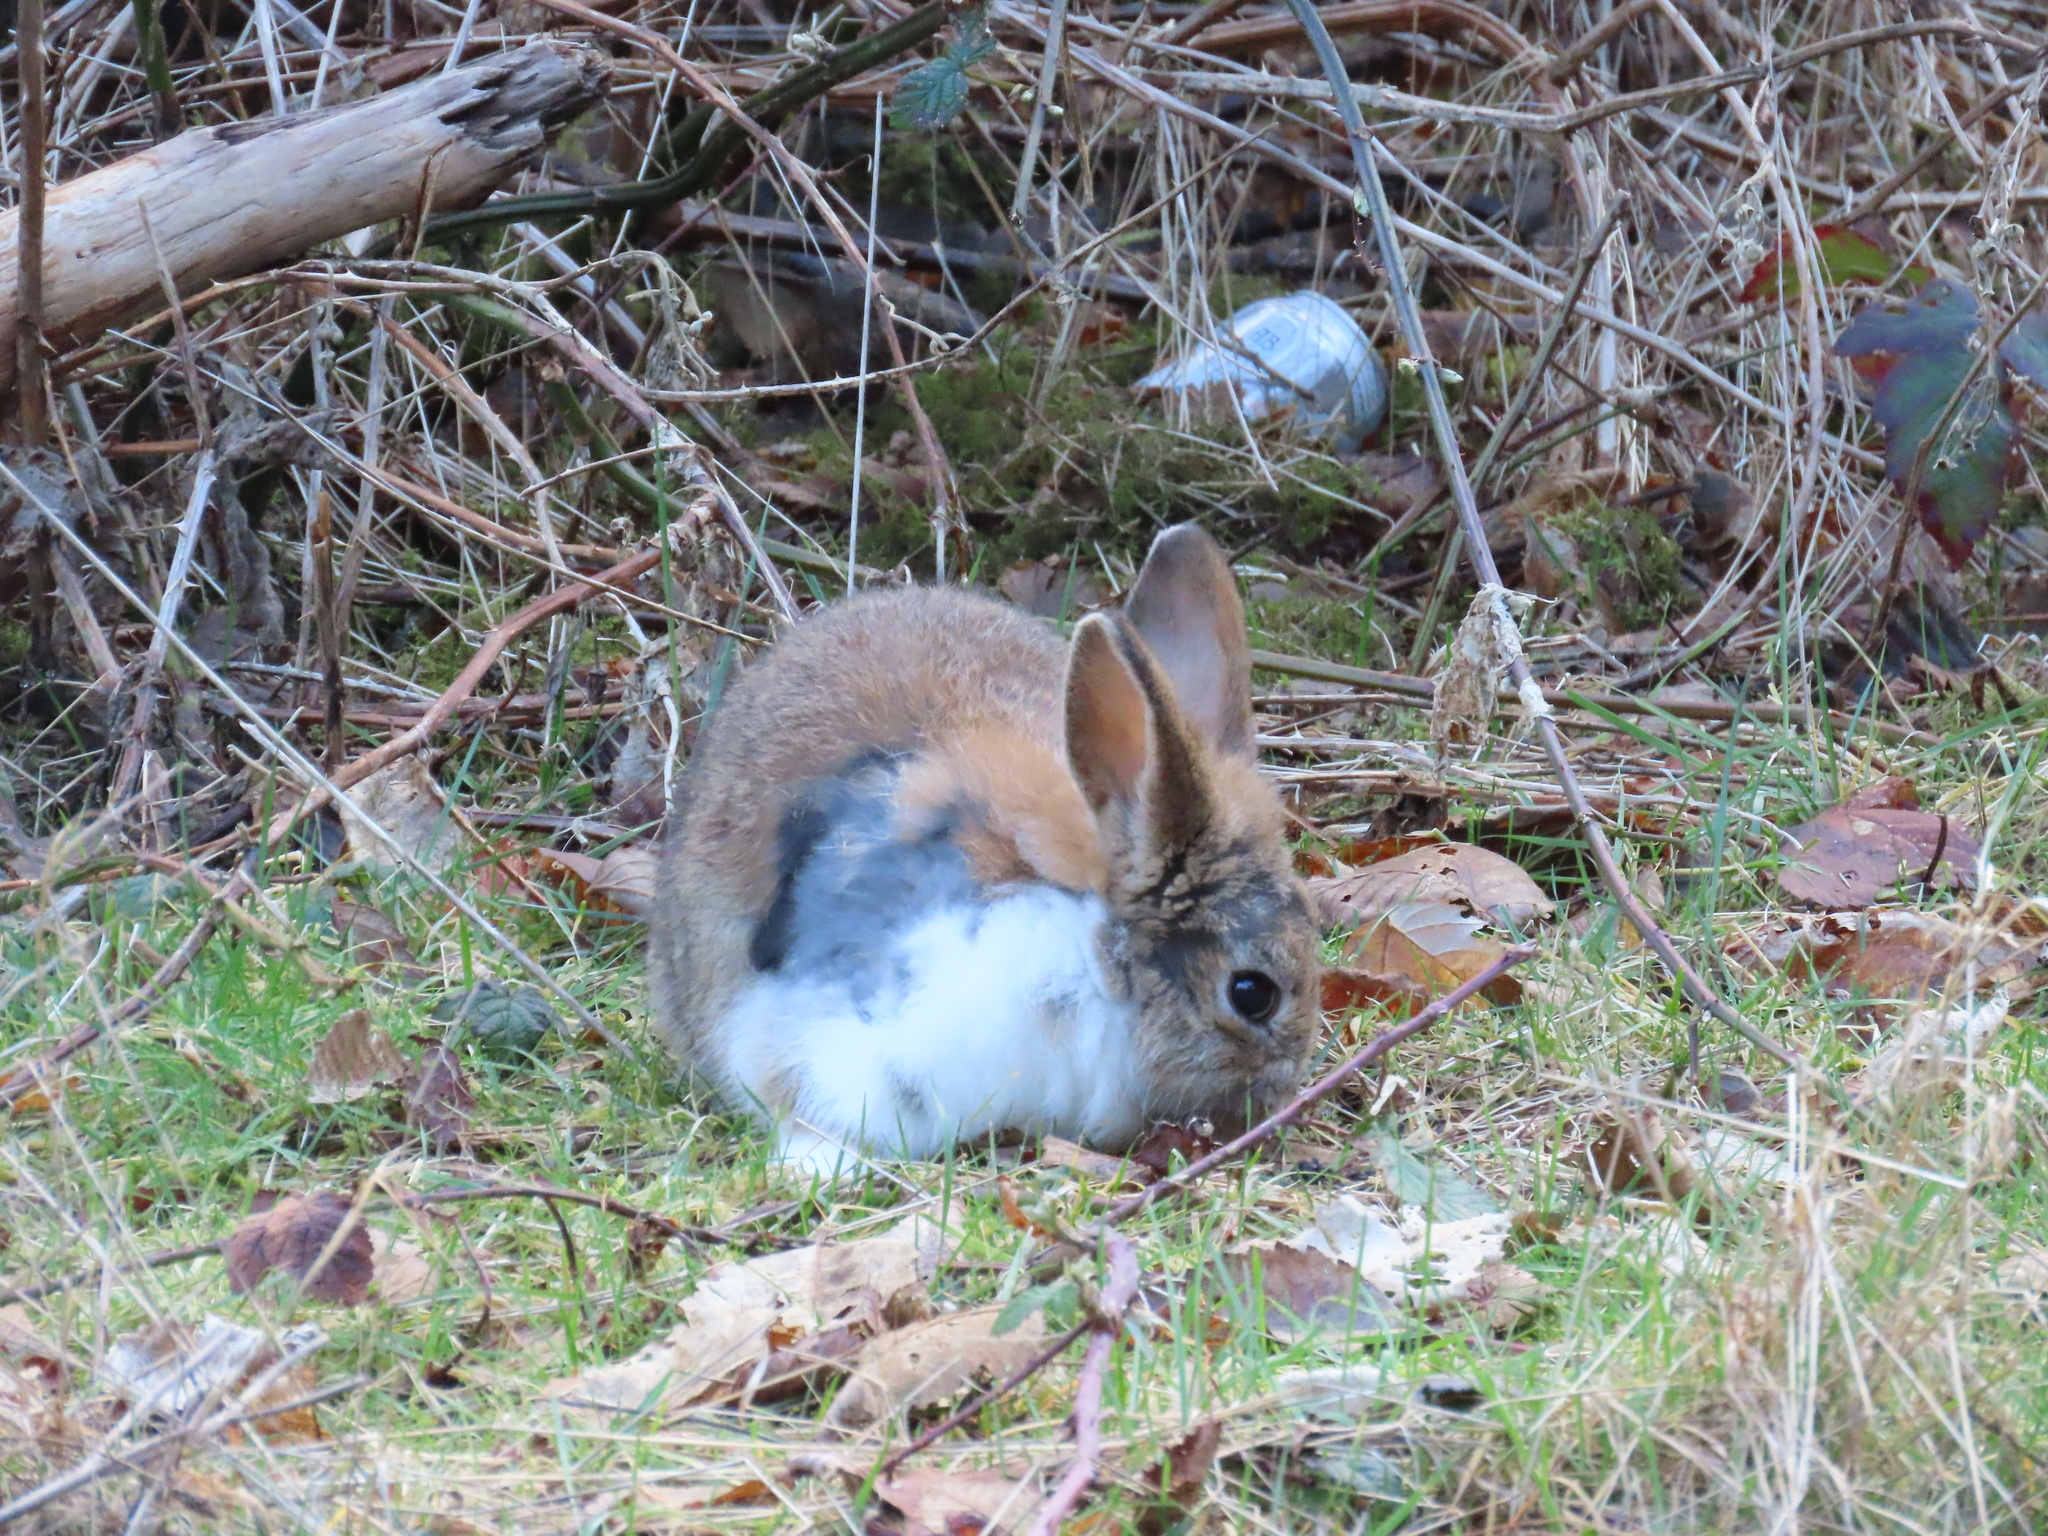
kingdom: Animalia
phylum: Chordata
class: Mammalia
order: Lagomorpha
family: Leporidae
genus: Oryctolagus
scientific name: Oryctolagus cuniculus
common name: European rabbit
